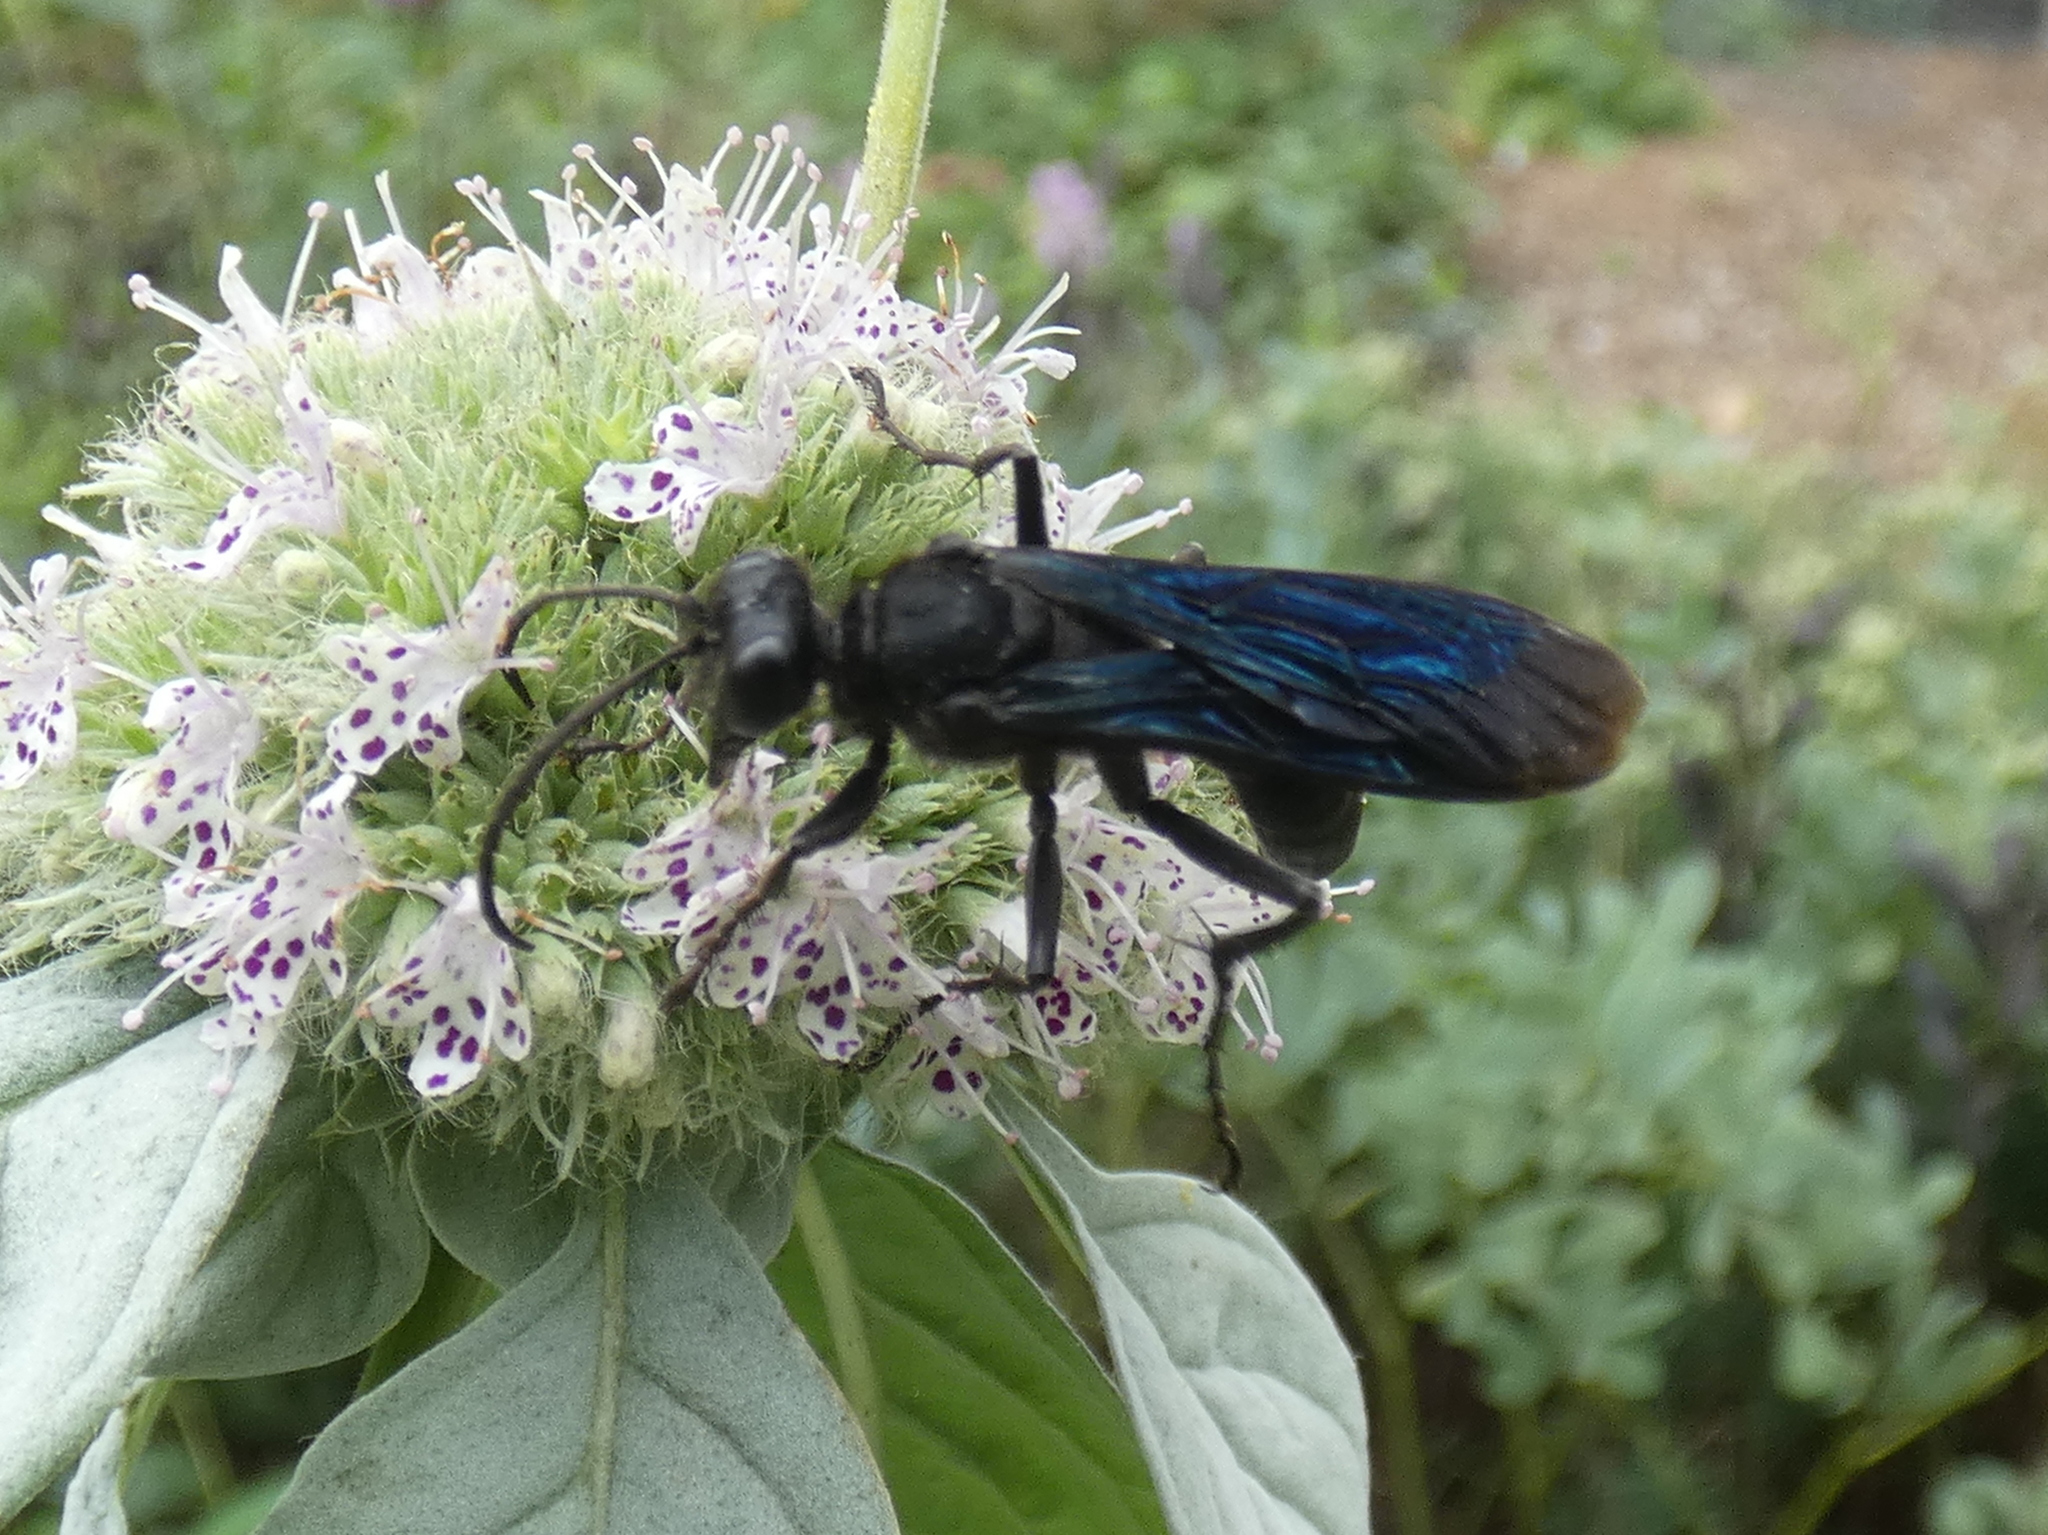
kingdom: Animalia
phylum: Arthropoda
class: Insecta
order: Hymenoptera
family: Sphecidae
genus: Sphex
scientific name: Sphex pensylvanicus
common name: Great black digger wasp
